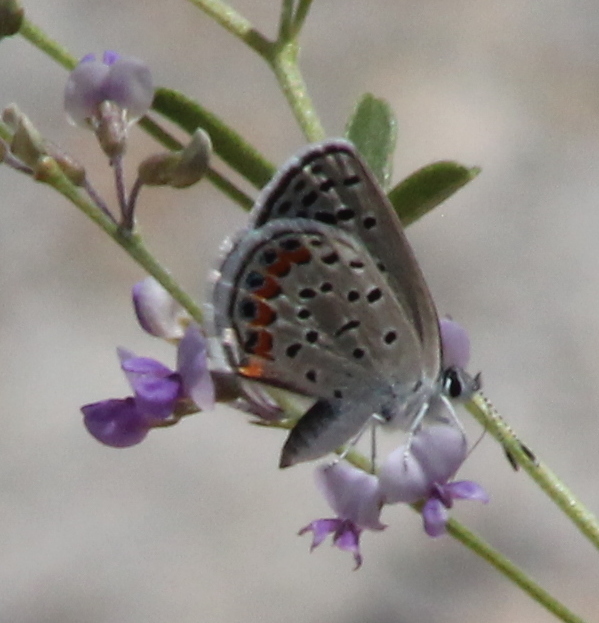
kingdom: Animalia
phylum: Arthropoda
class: Insecta
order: Lepidoptera
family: Lycaenidae
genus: Icaricia
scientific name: Icaricia lupini
